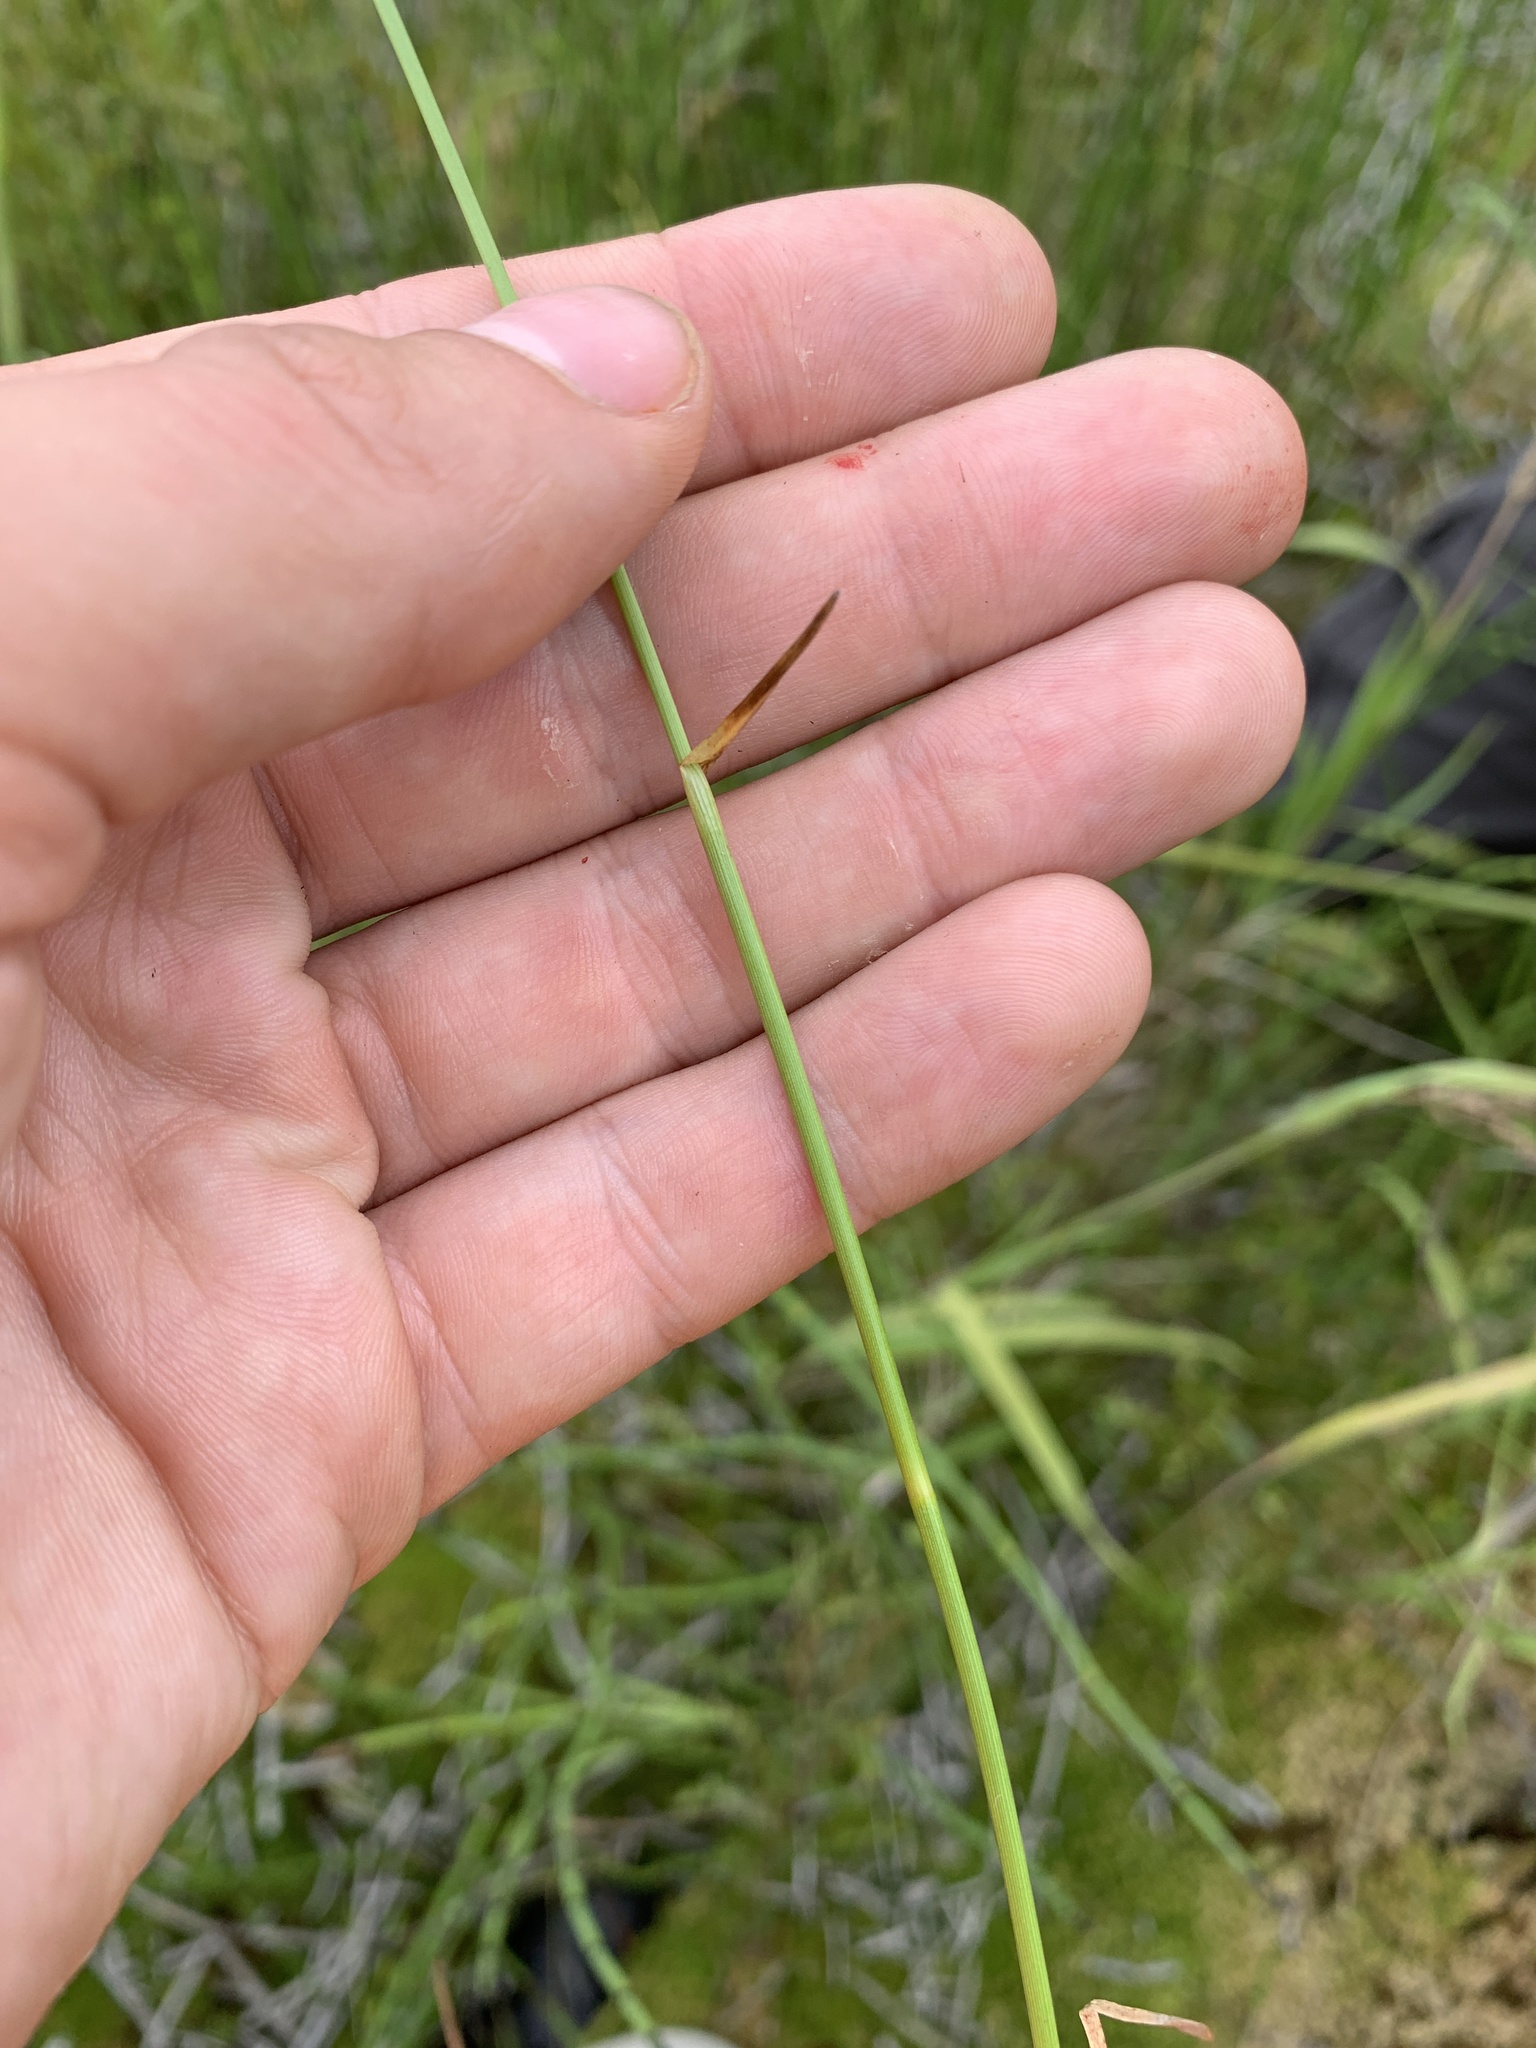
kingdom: Plantae
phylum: Tracheophyta
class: Liliopsida
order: Poales
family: Cyperaceae
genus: Eriophorum
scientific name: Eriophorum gracile
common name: Slender cottongrass
